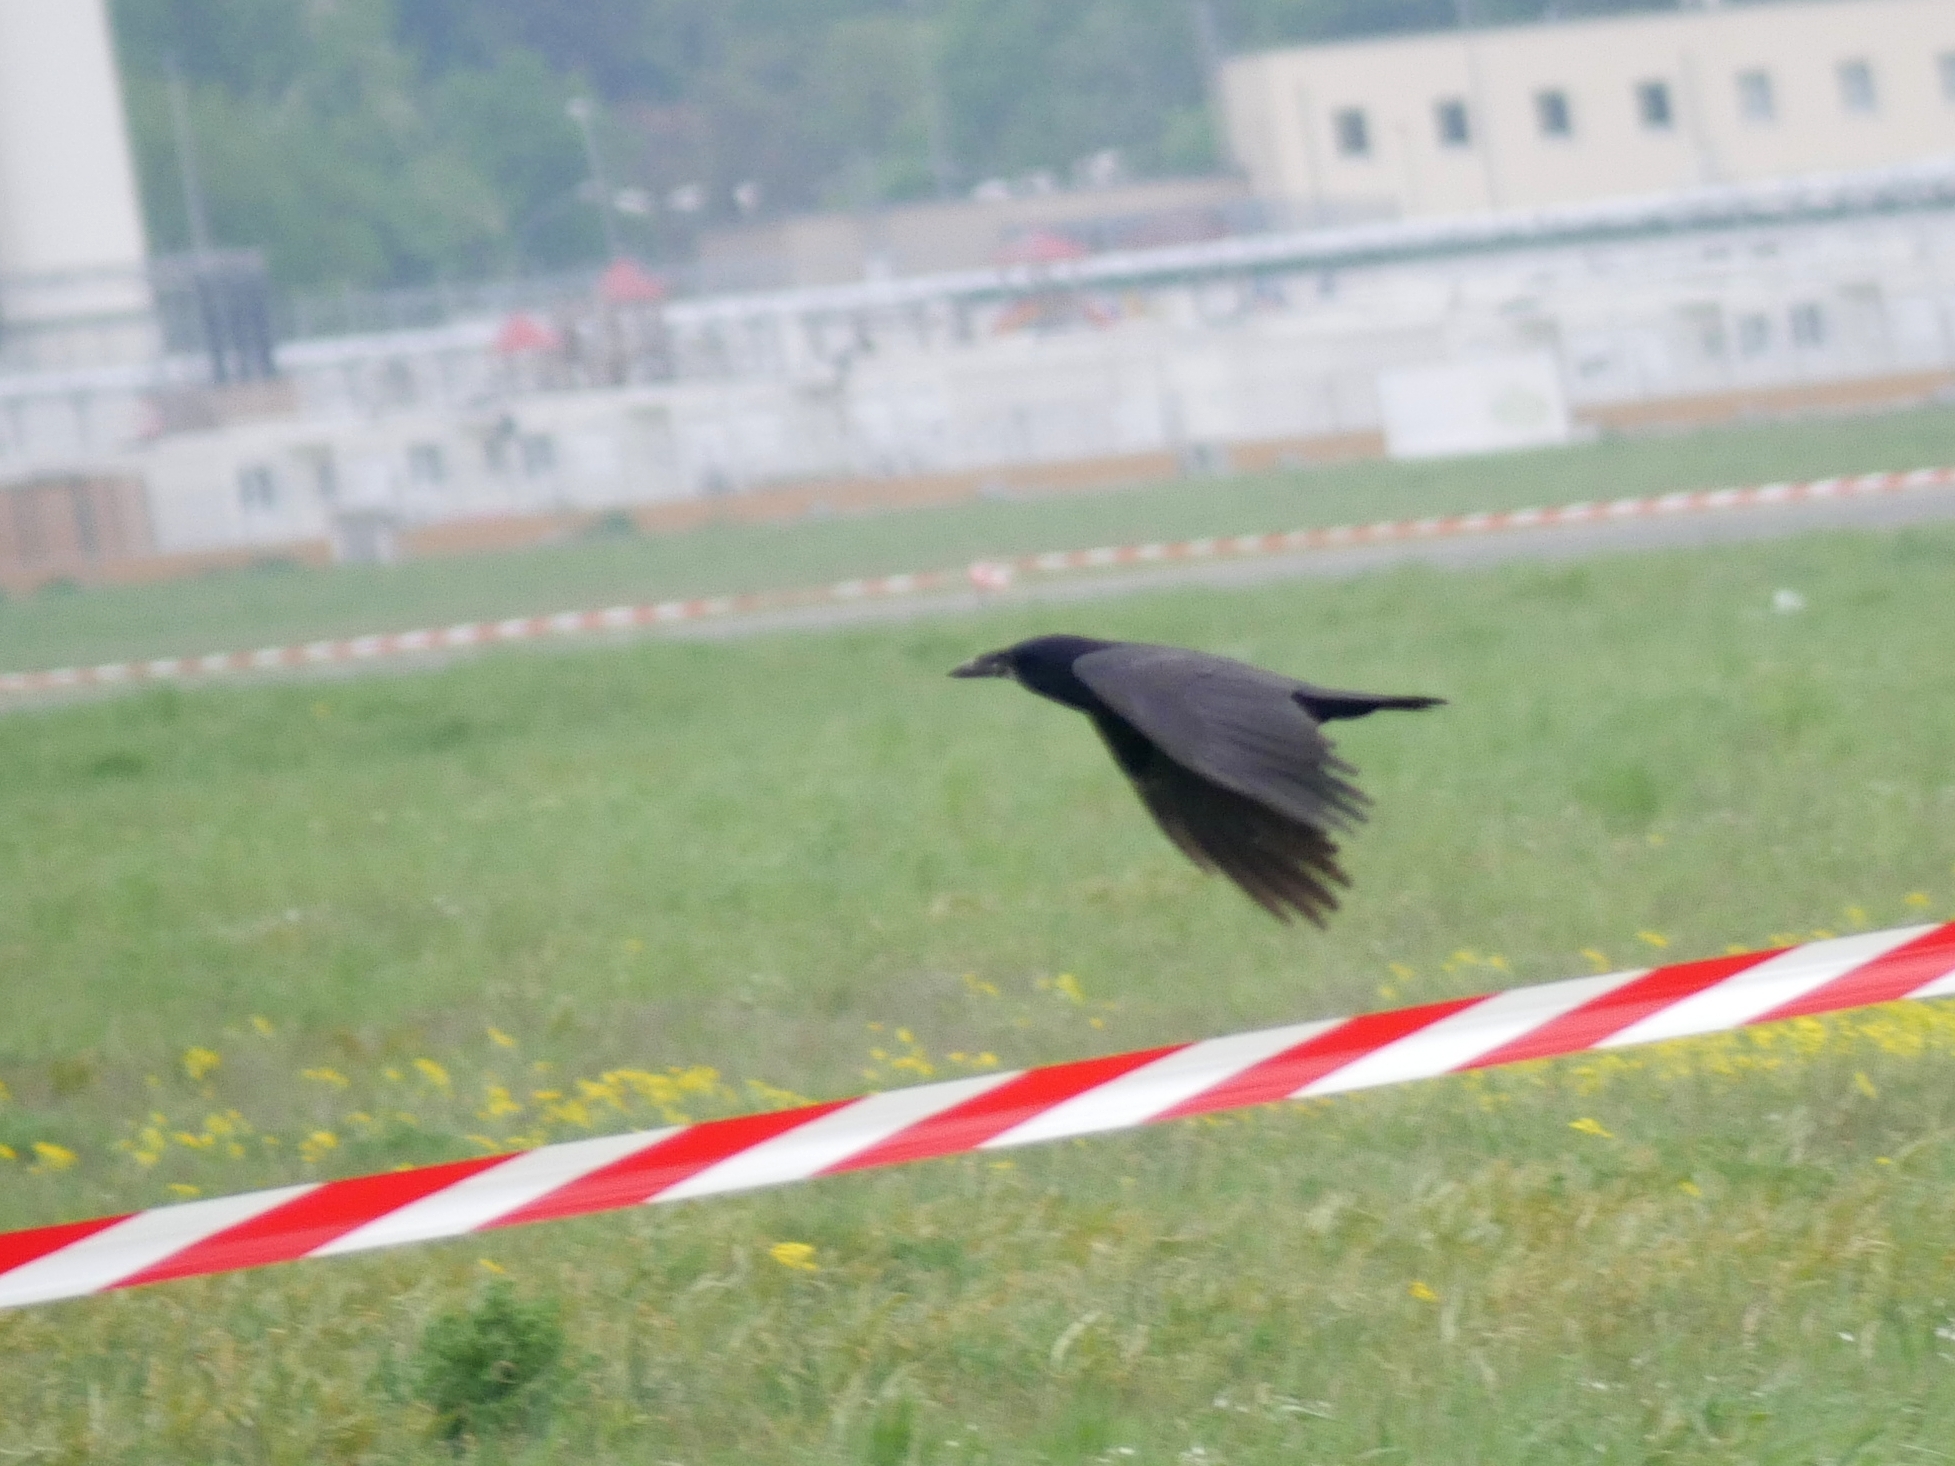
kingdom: Animalia
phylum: Chordata
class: Aves
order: Passeriformes
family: Corvidae
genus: Corvus
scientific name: Corvus frugilegus
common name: Rook
